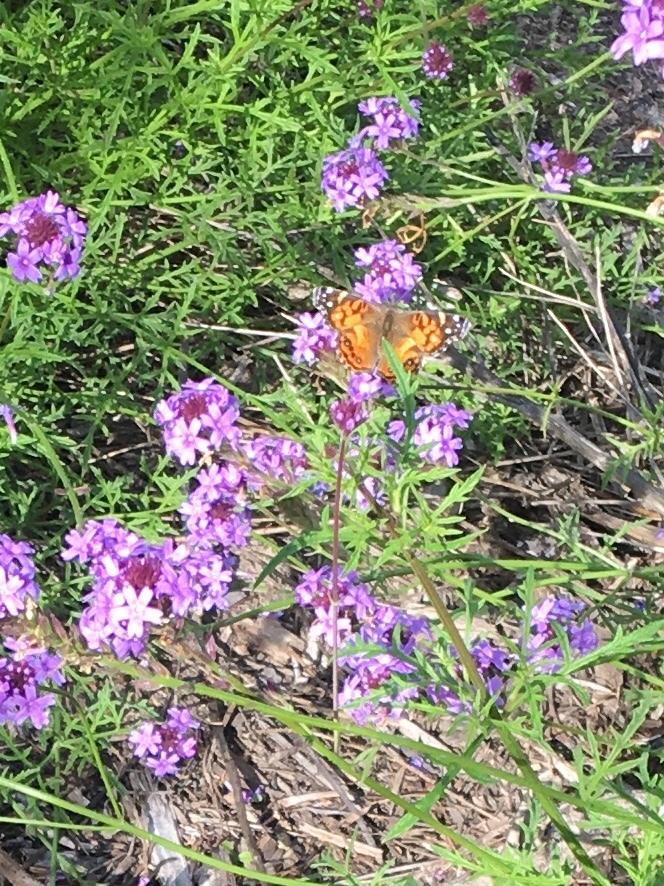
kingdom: Animalia
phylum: Arthropoda
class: Insecta
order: Lepidoptera
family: Nymphalidae
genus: Vanessa
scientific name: Vanessa virginiensis
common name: American lady
